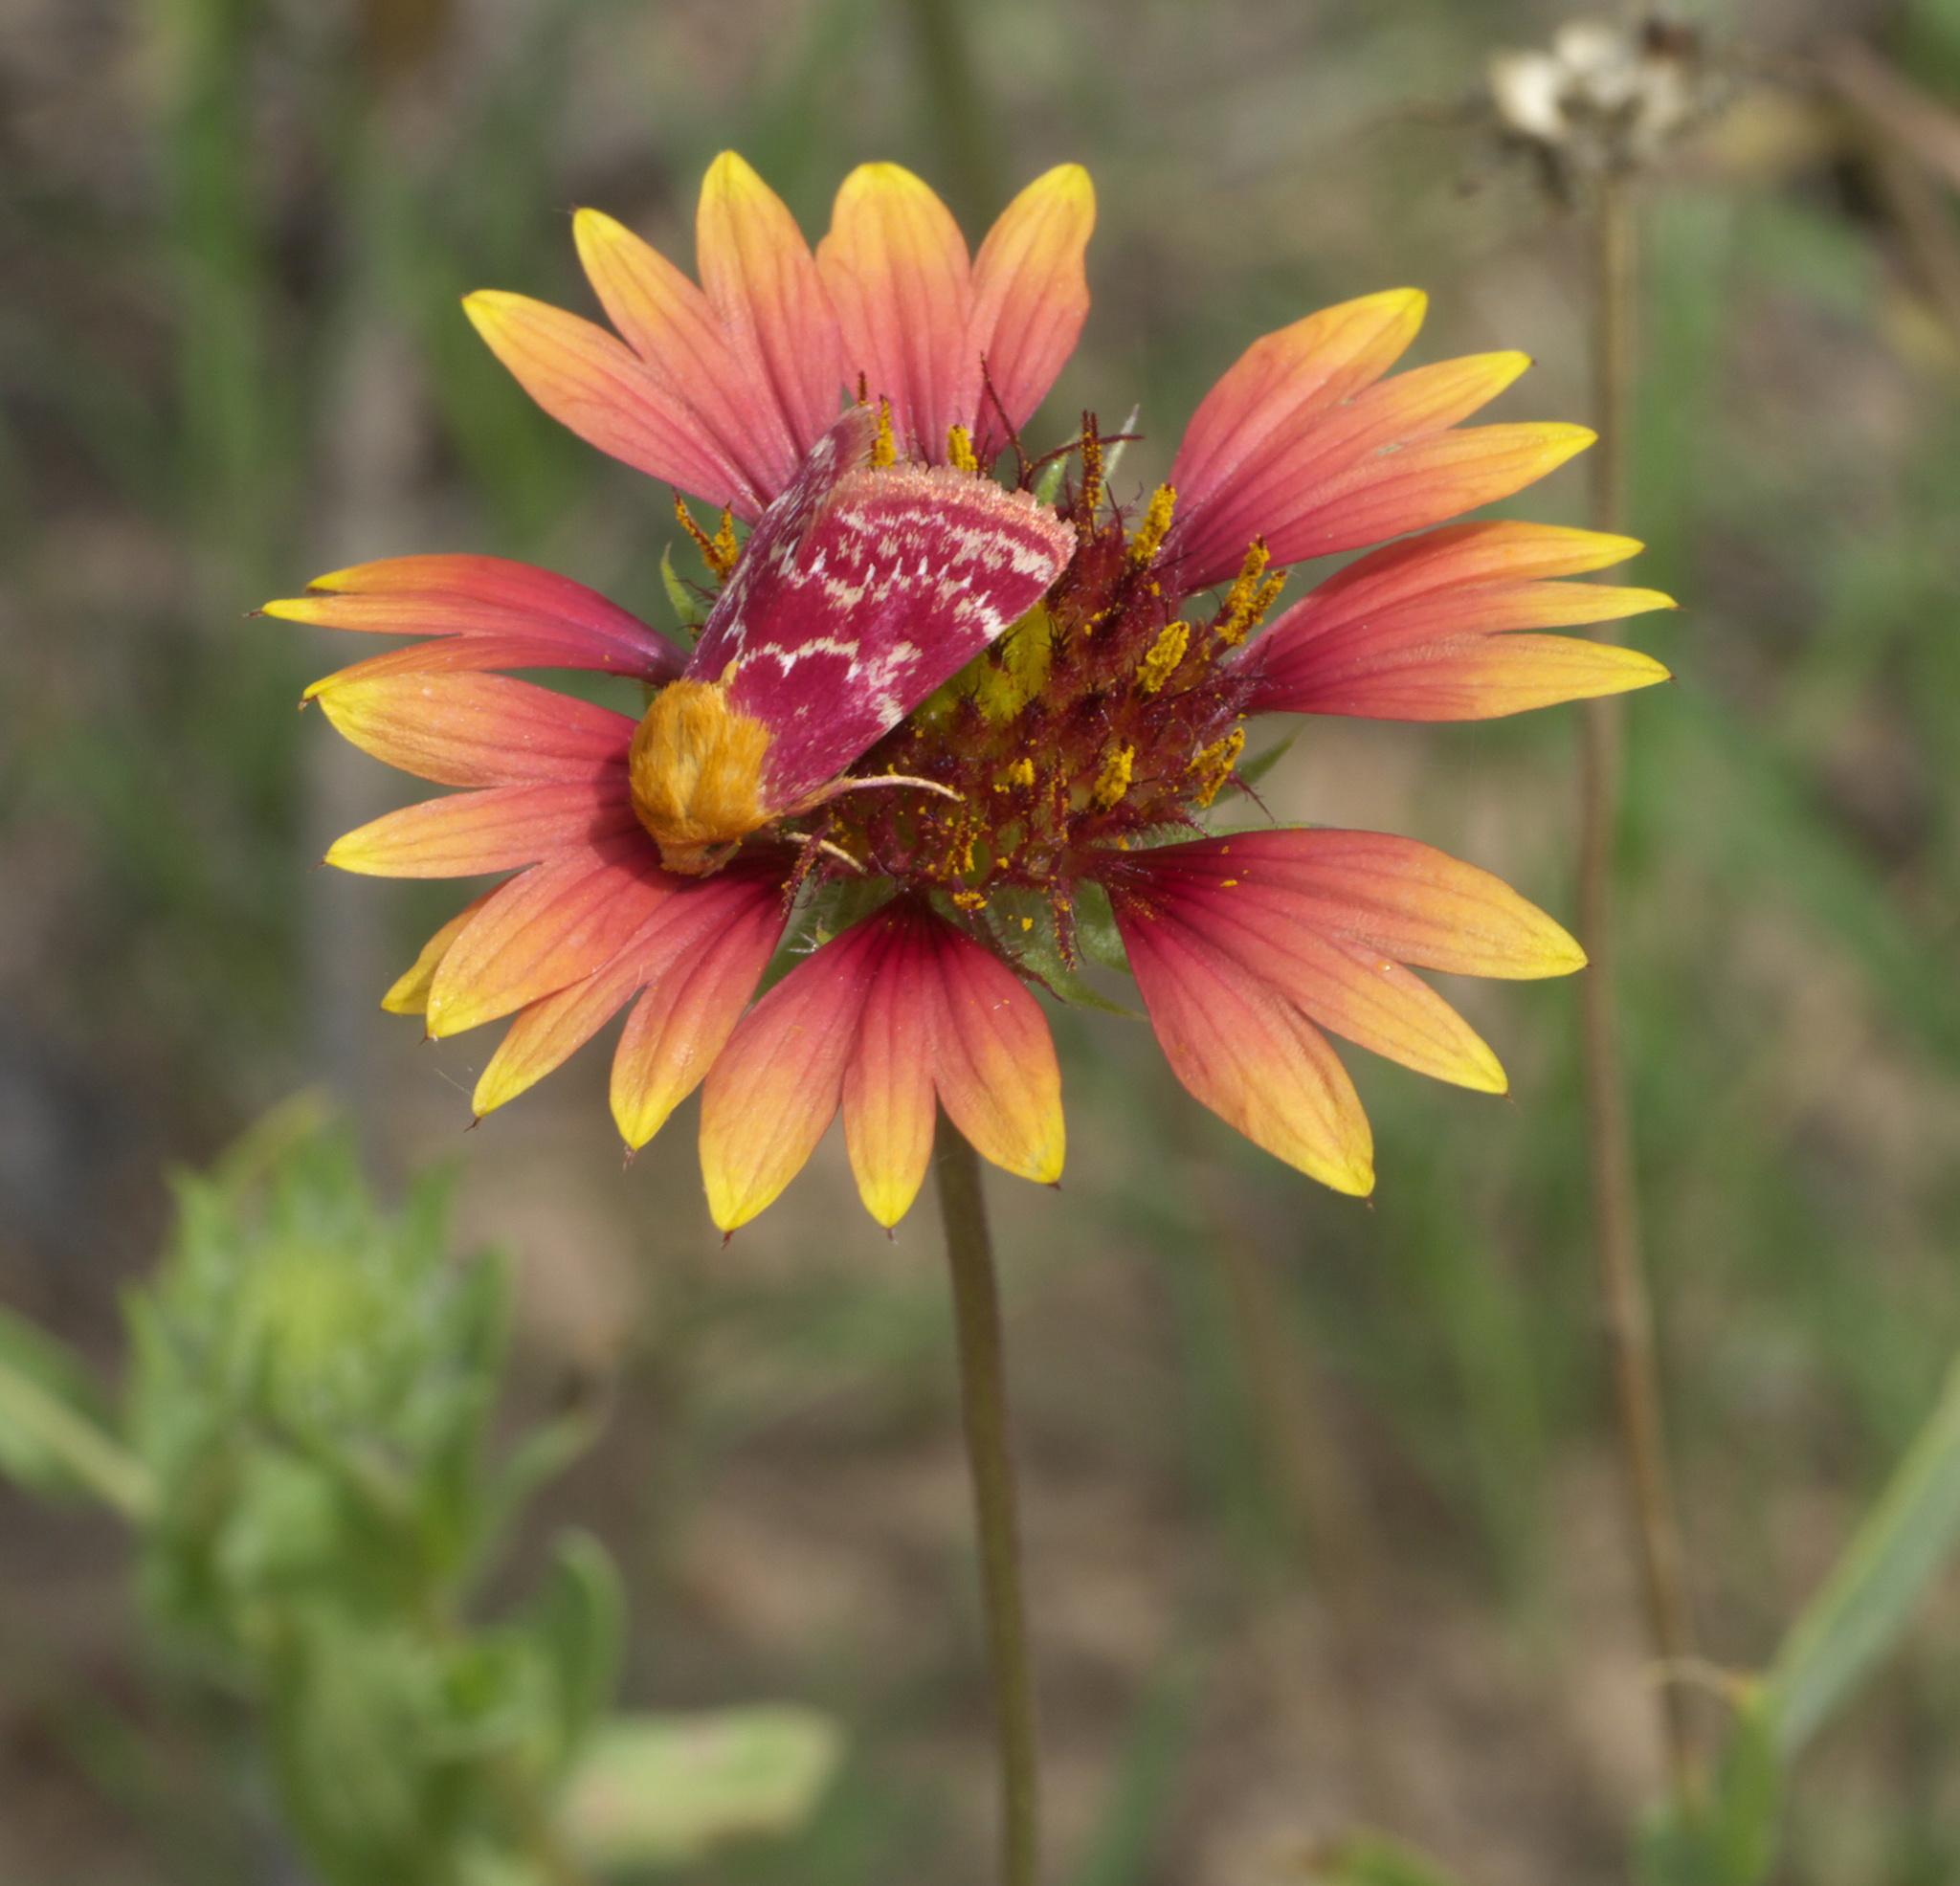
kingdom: Animalia
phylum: Arthropoda
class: Insecta
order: Lepidoptera
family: Noctuidae
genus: Schinia
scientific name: Schinia volupia
